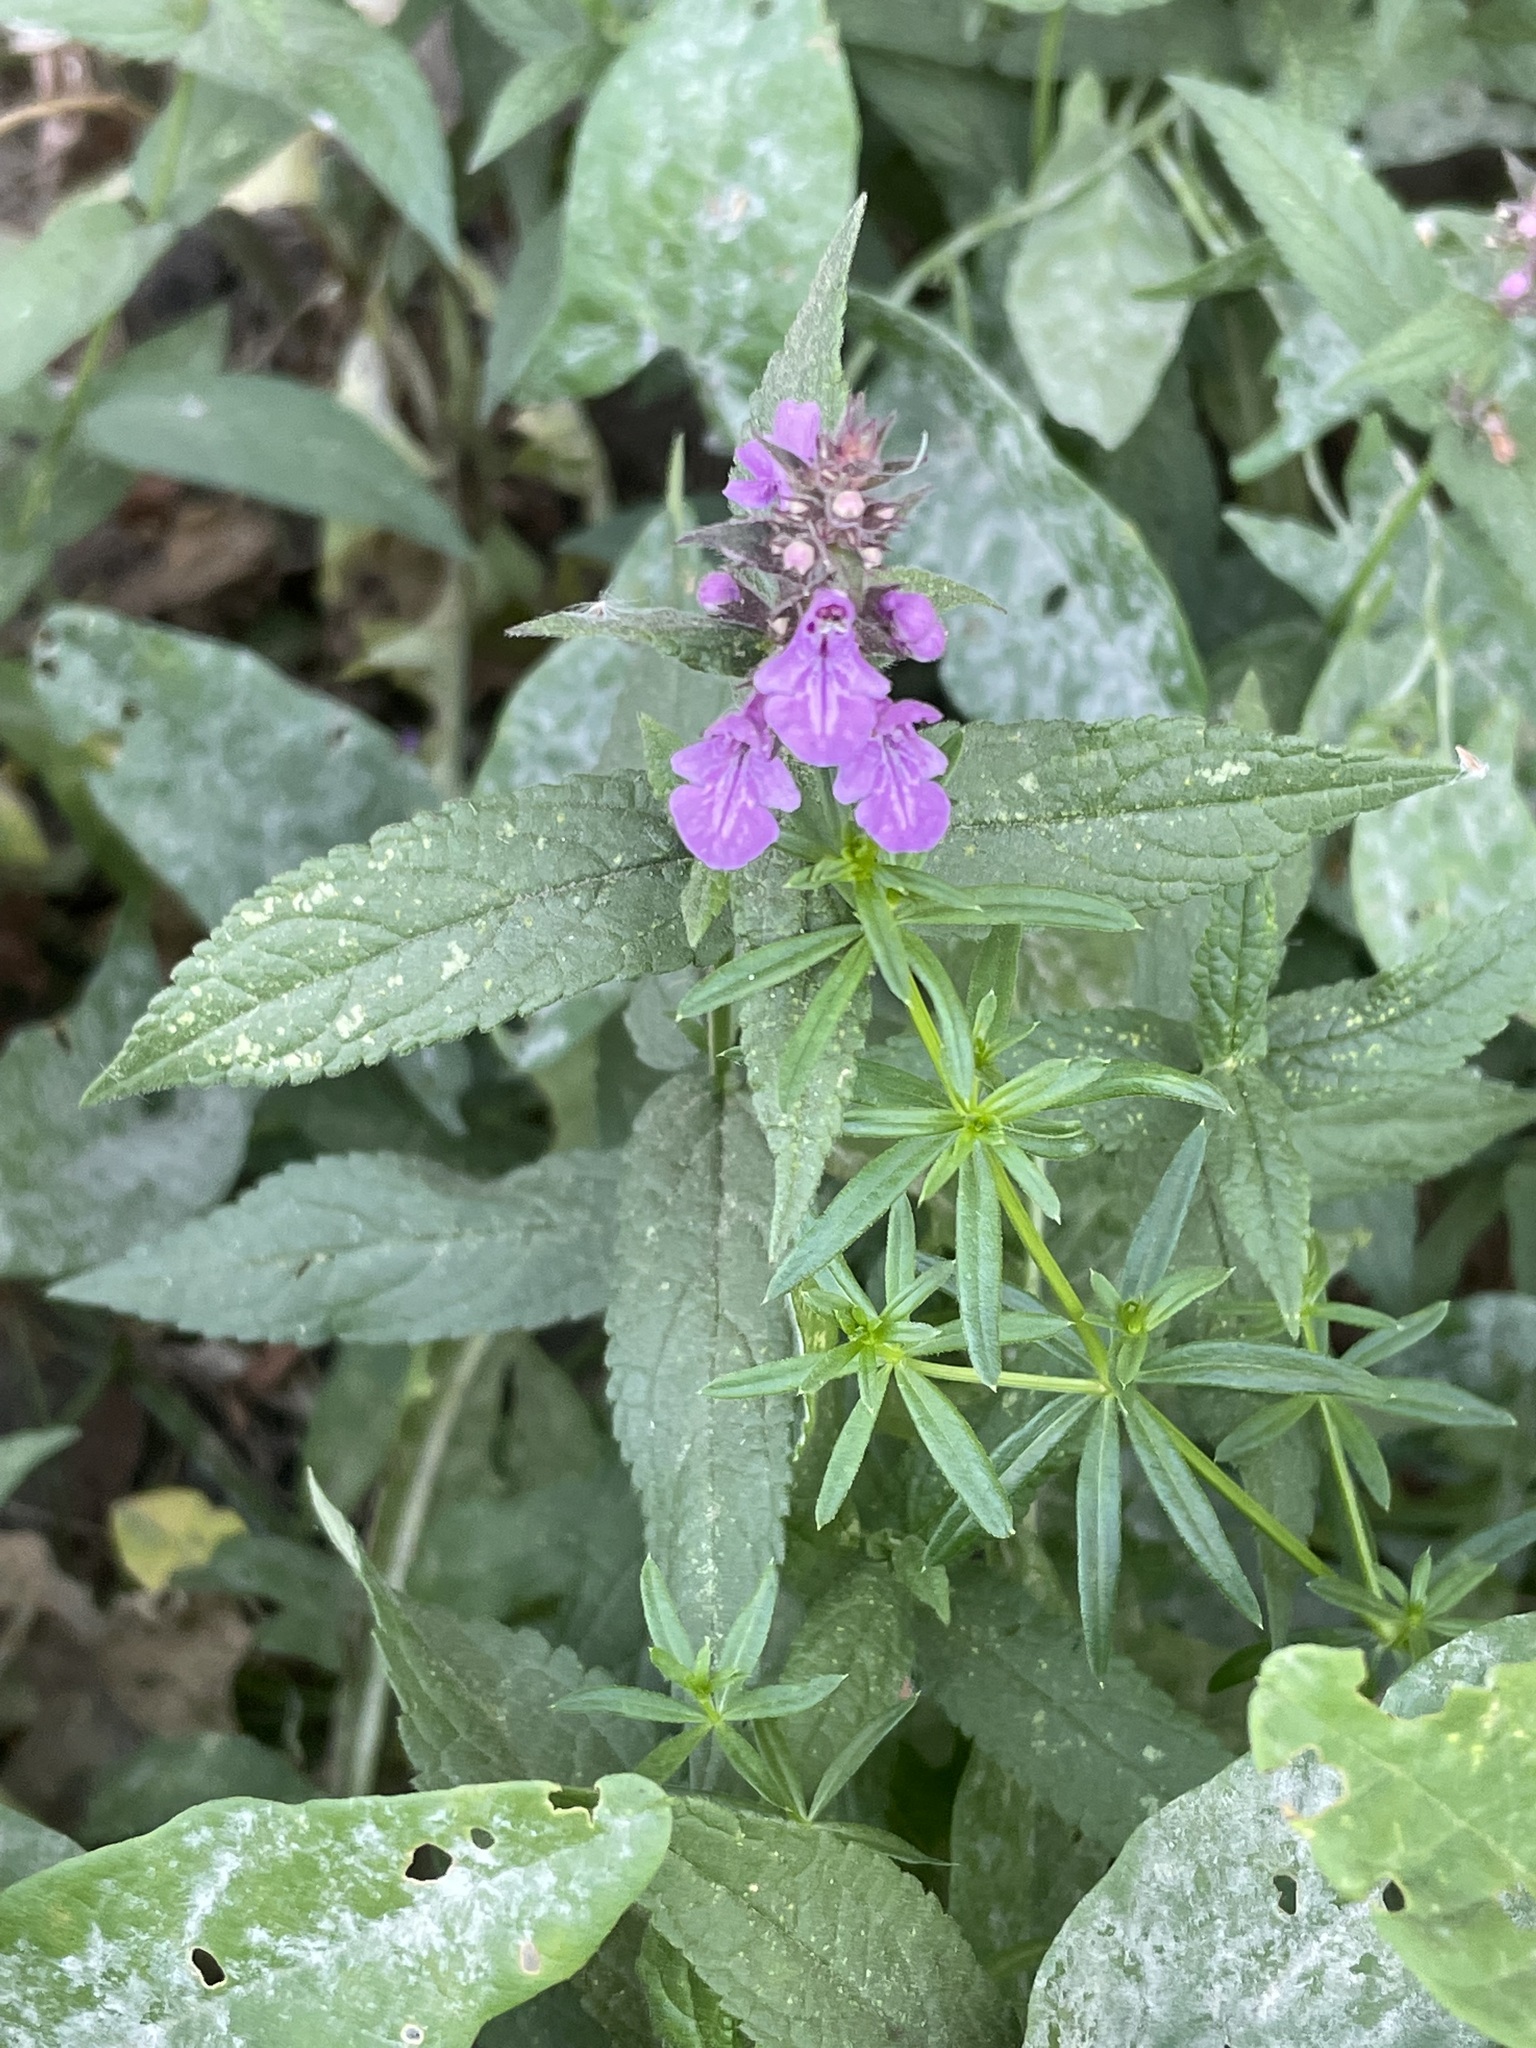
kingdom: Plantae
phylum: Tracheophyta
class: Magnoliopsida
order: Lamiales
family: Lamiaceae
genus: Stachys
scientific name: Stachys palustris
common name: Marsh woundwort
